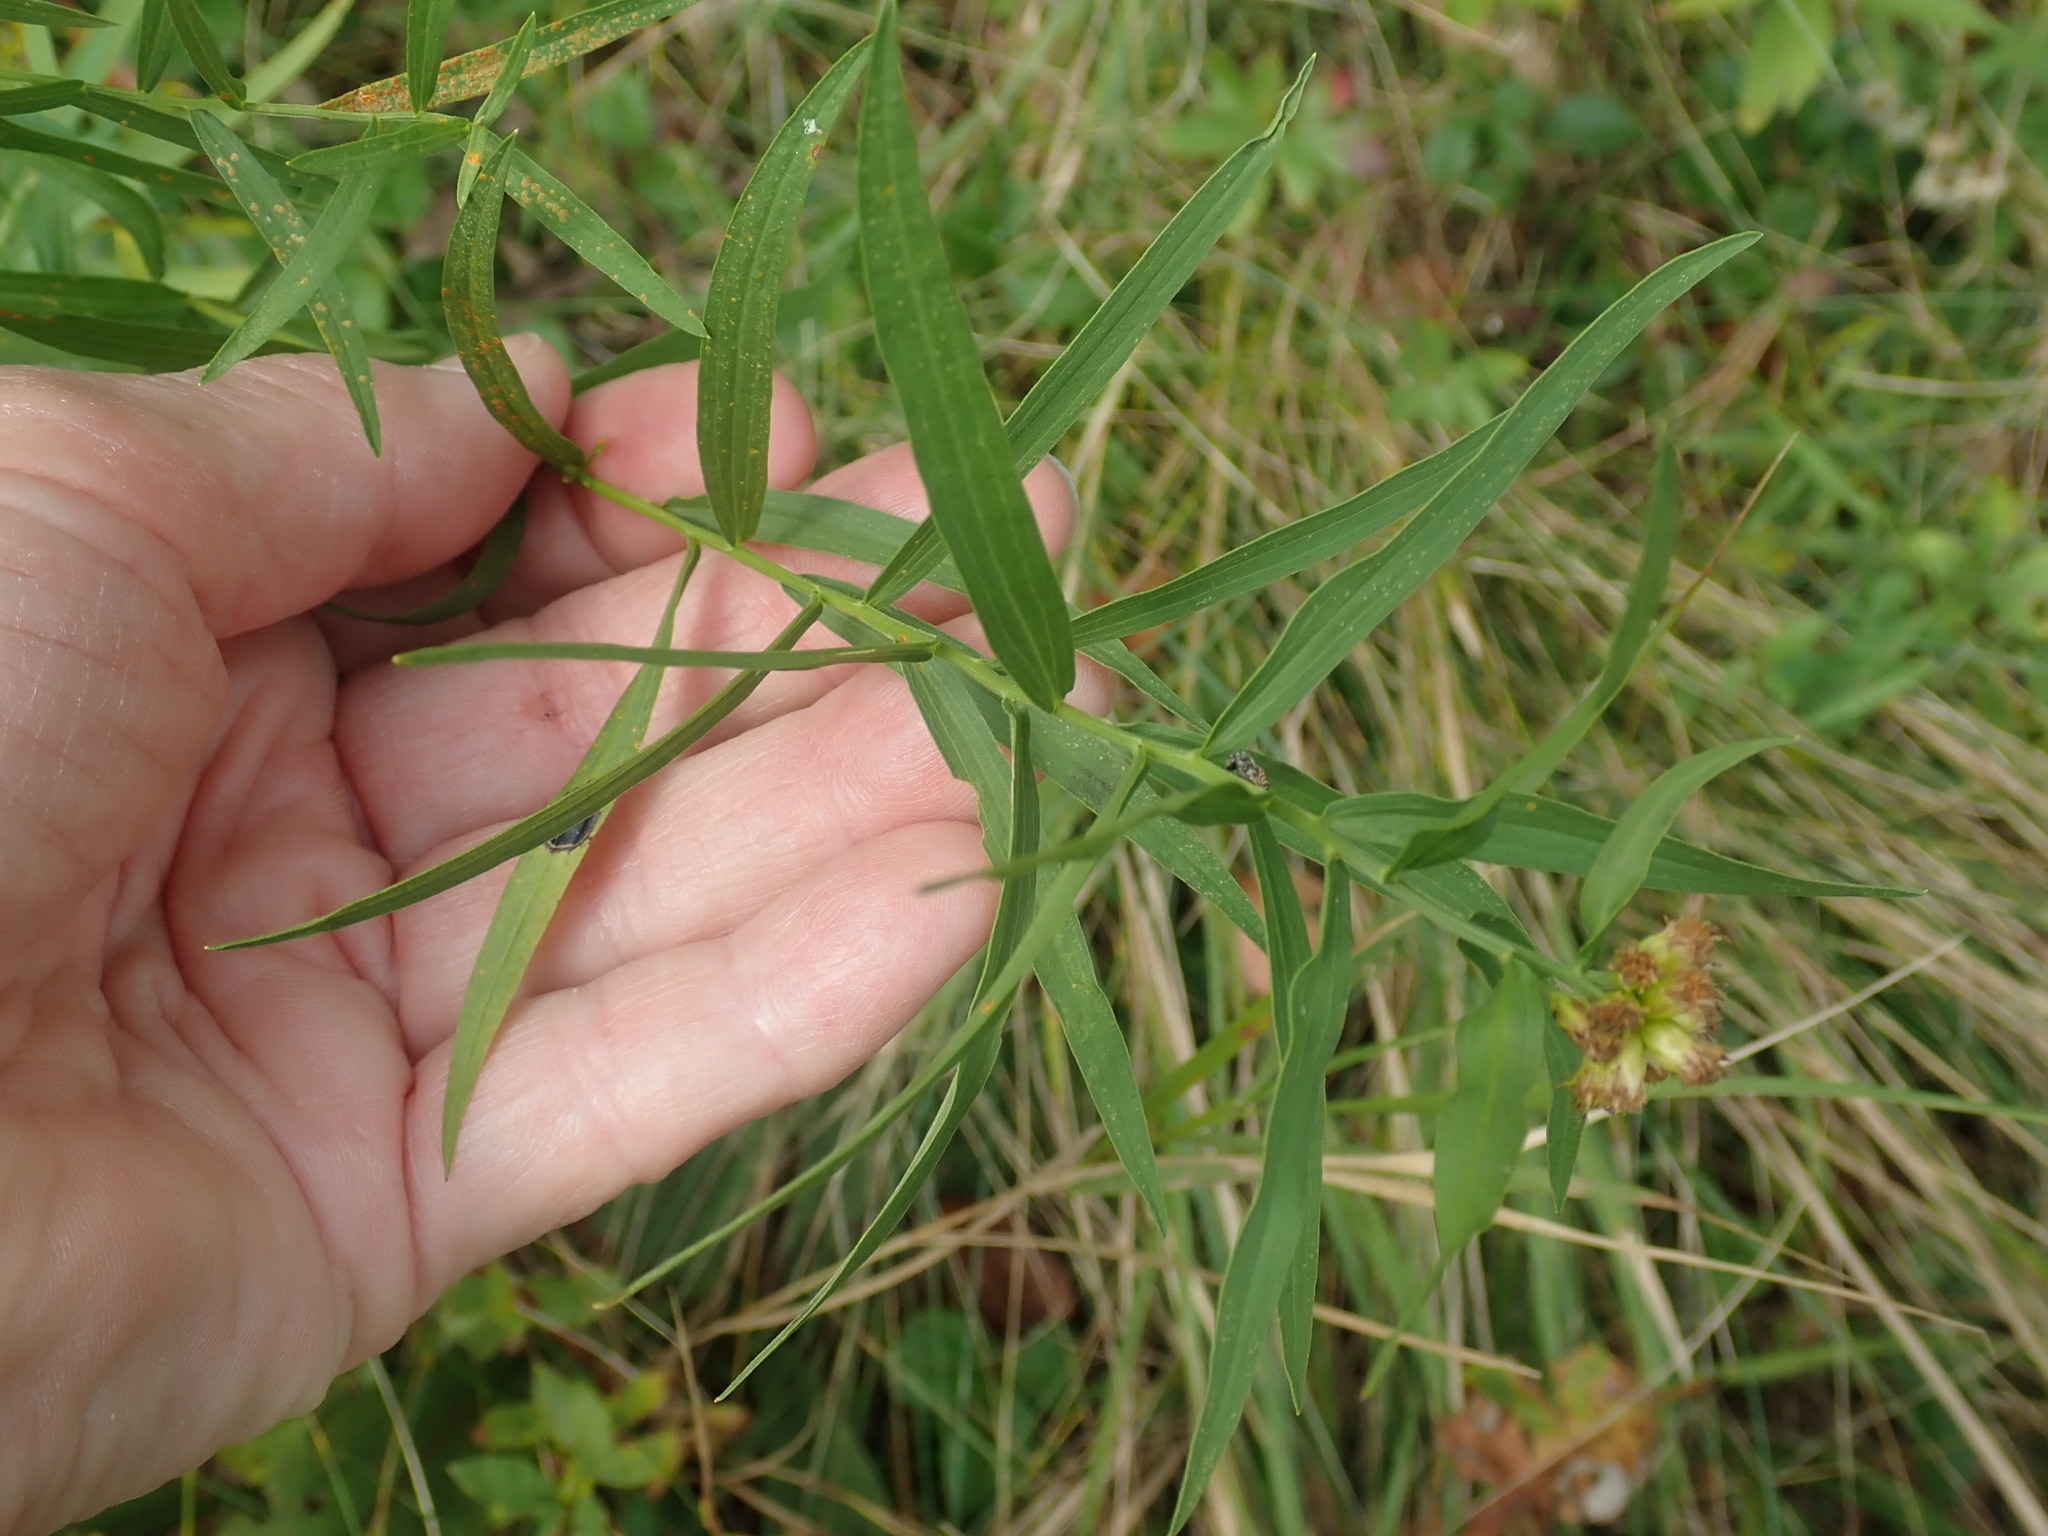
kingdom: Animalia
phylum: Arthropoda
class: Insecta
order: Diptera
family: Cecidomyiidae
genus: Asteromyia
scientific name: Asteromyia euthamiae
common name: Euthamia leaf gall midge
